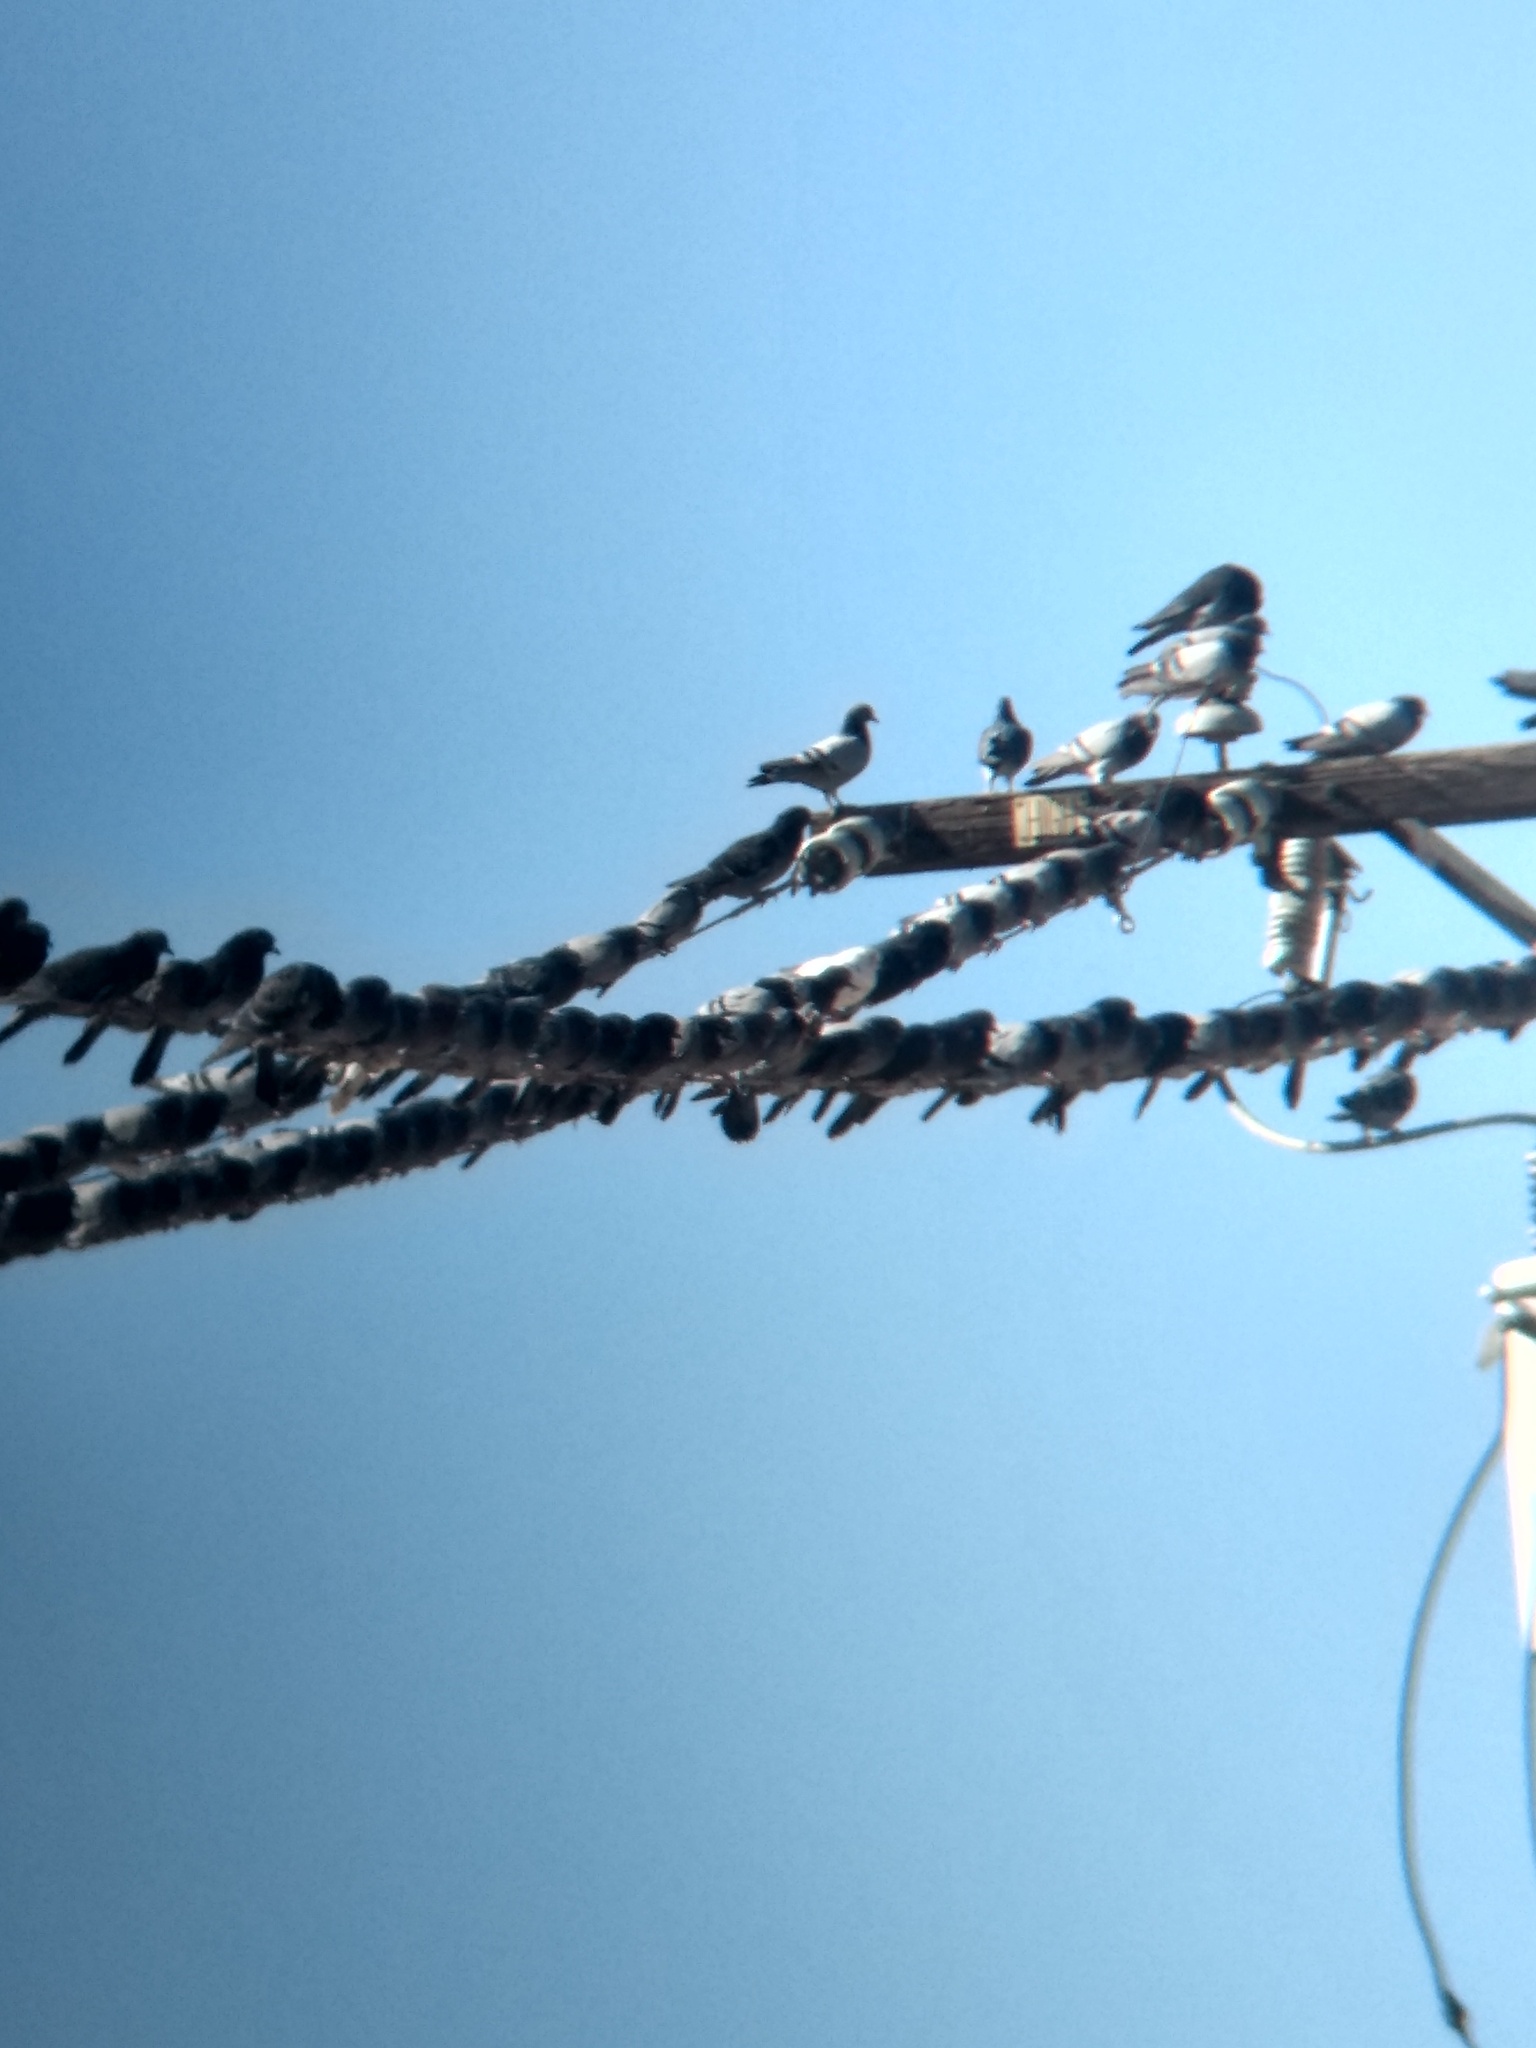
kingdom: Animalia
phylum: Chordata
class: Aves
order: Columbiformes
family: Columbidae
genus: Columba
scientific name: Columba livia
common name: Rock pigeon
